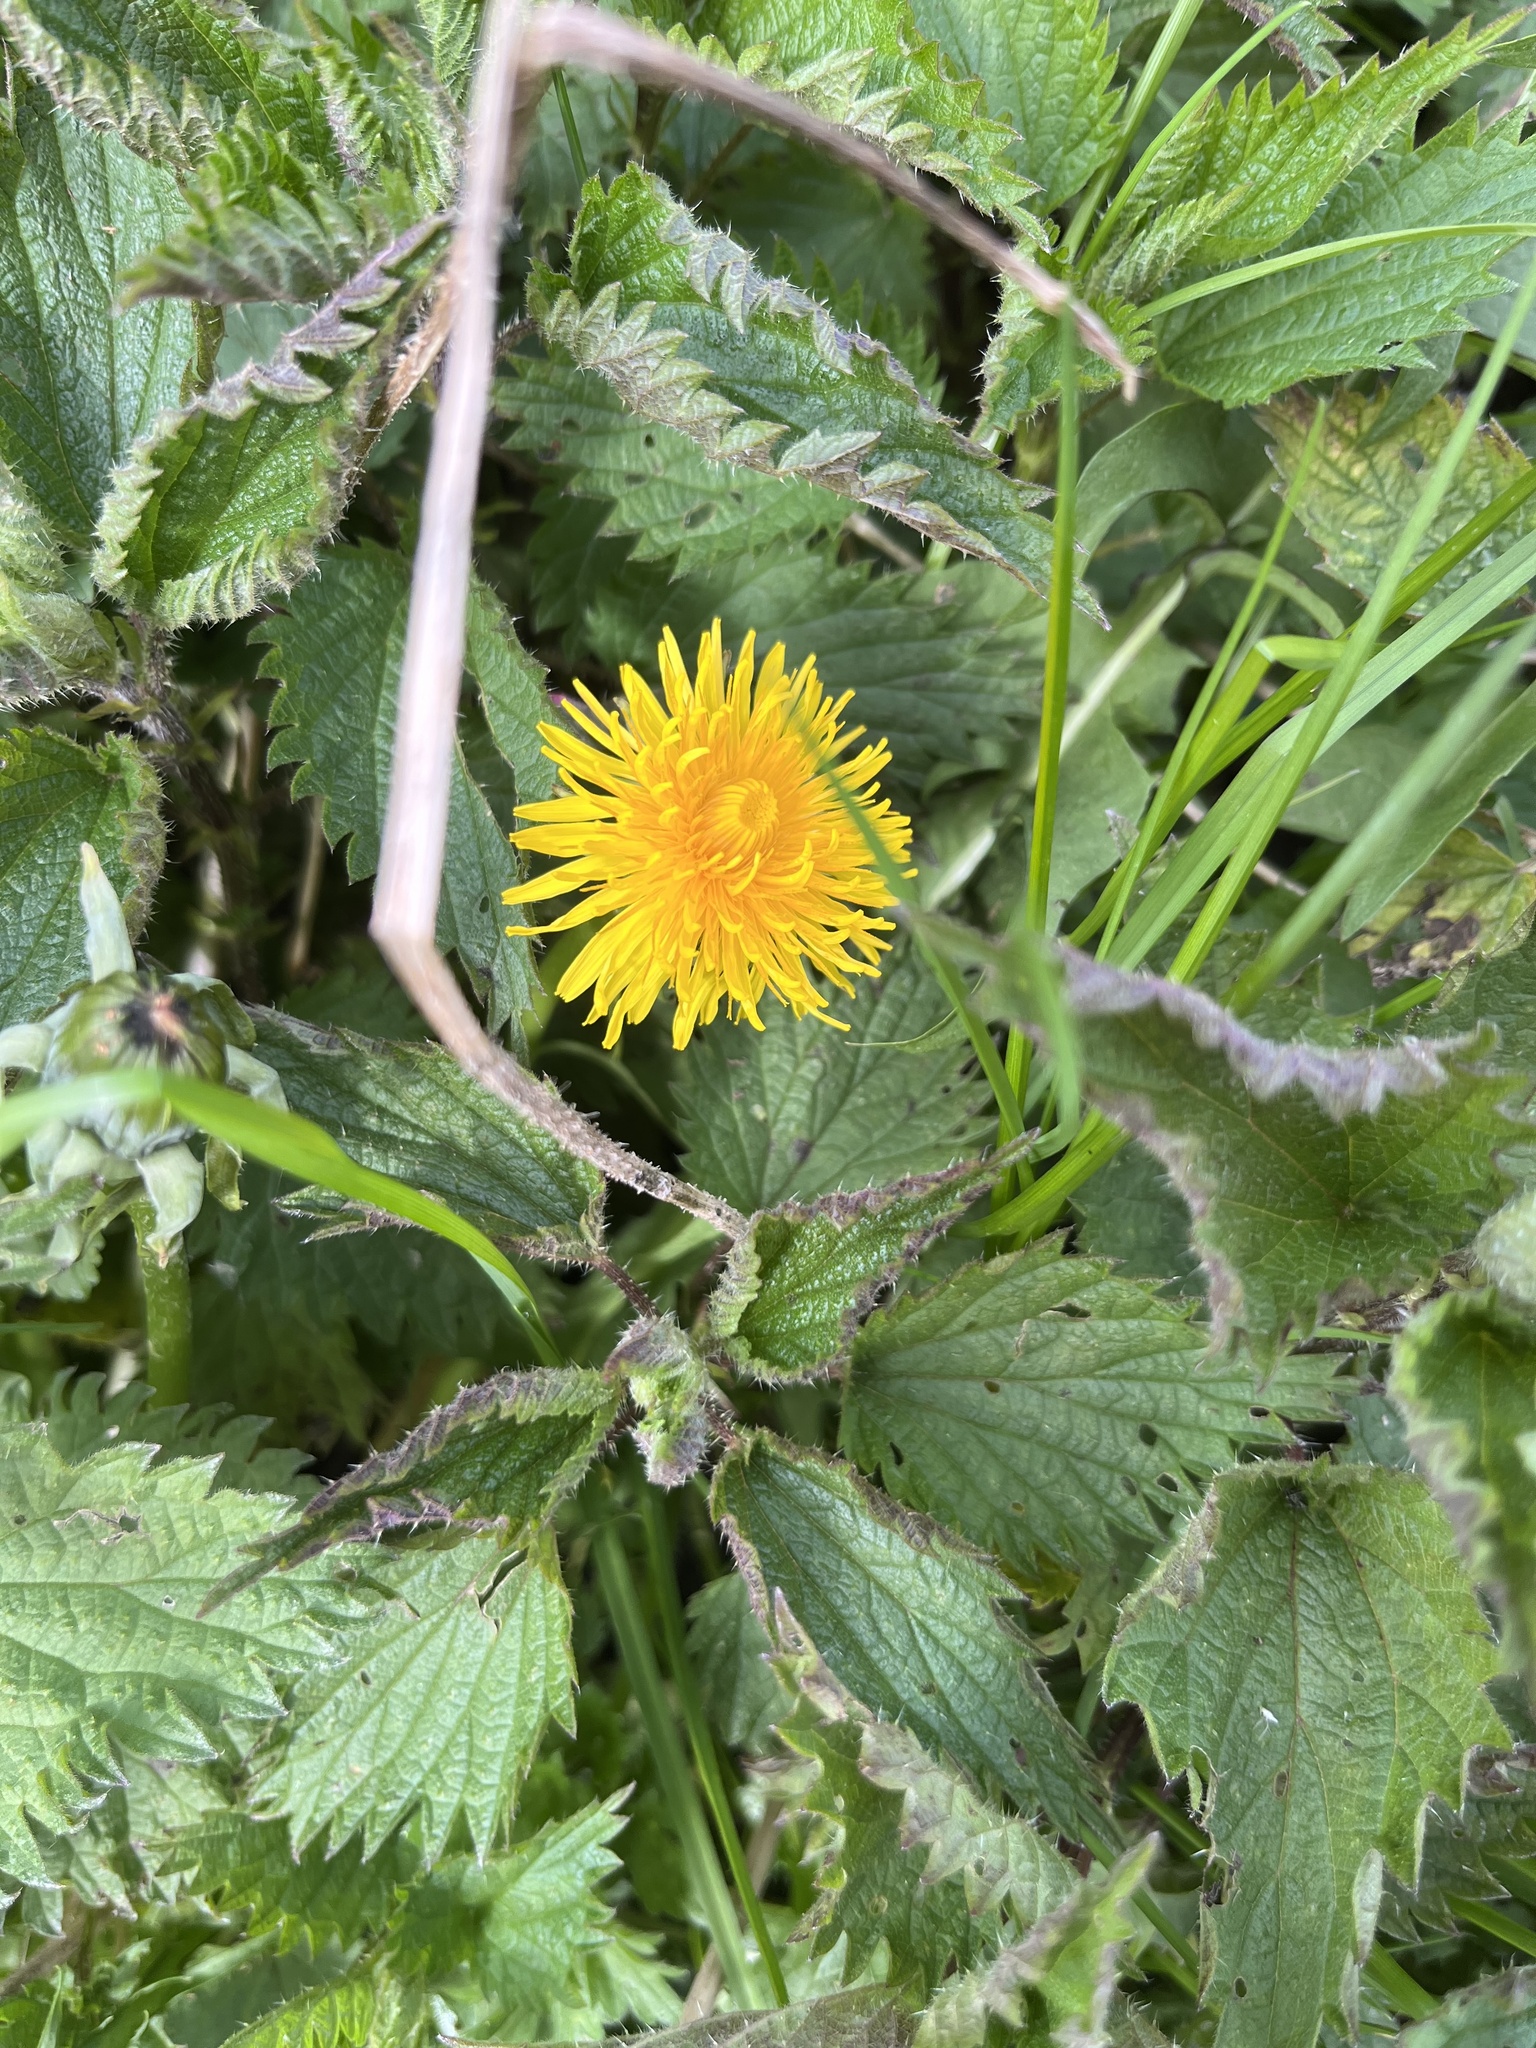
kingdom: Plantae
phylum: Tracheophyta
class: Magnoliopsida
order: Asterales
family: Asteraceae
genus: Taraxacum
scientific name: Taraxacum officinale
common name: Common dandelion
